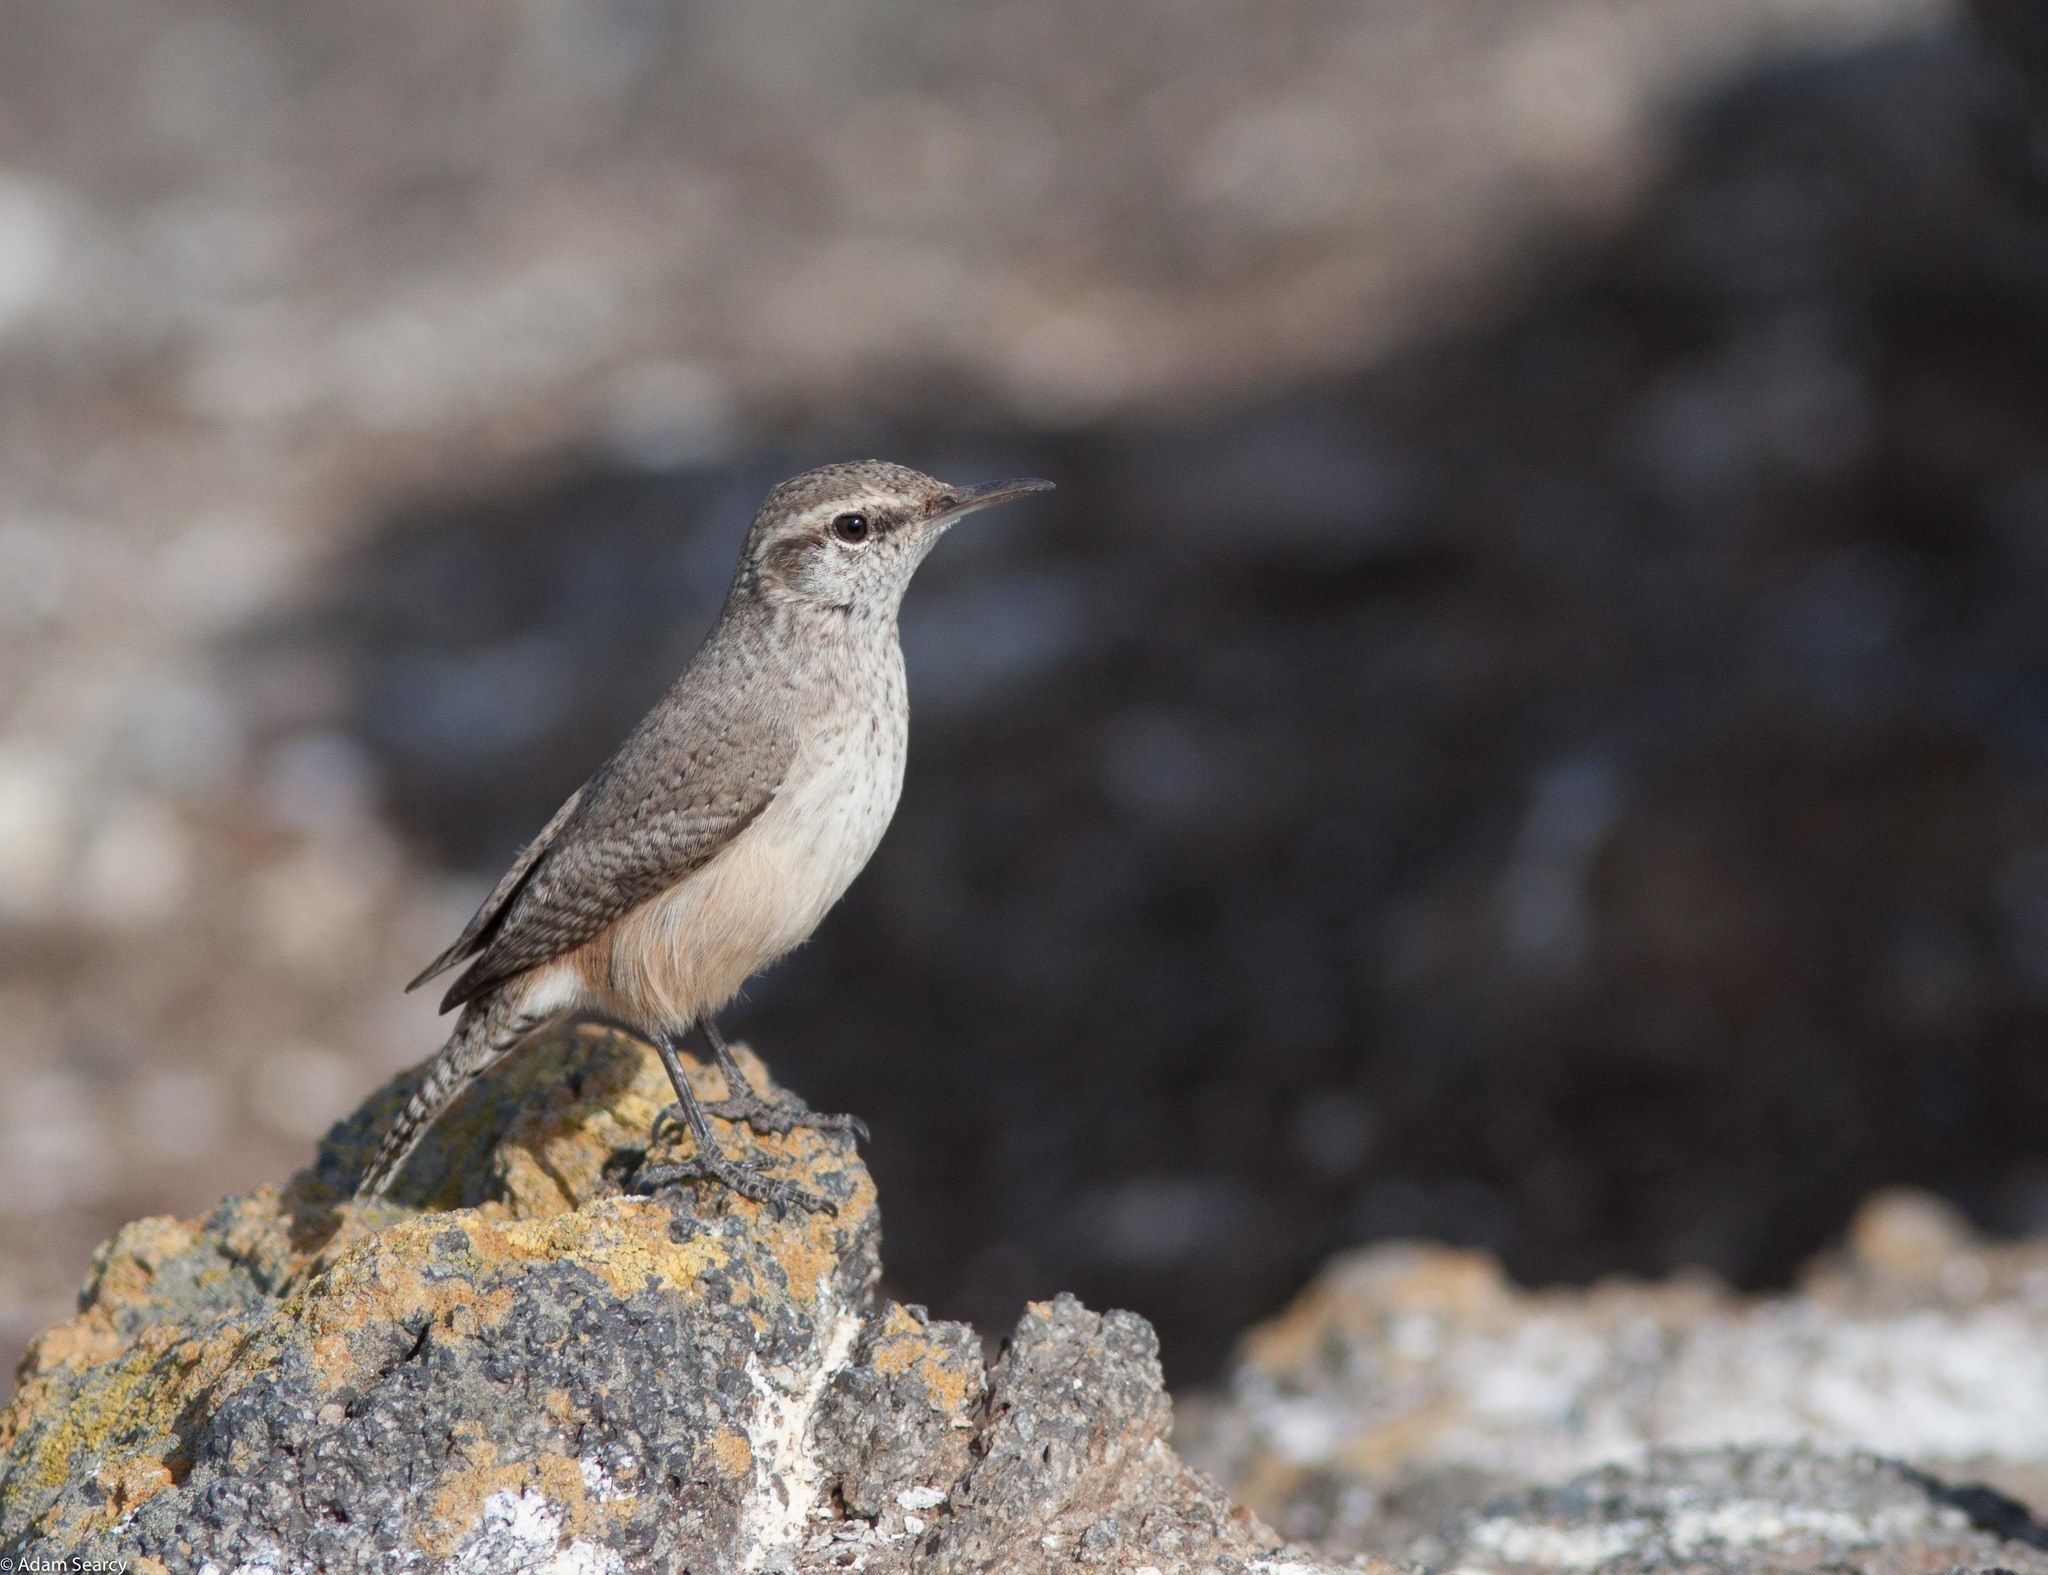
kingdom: Animalia
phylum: Chordata
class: Aves
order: Passeriformes
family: Troglodytidae
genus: Salpinctes
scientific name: Salpinctes obsoletus
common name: Rock wren
